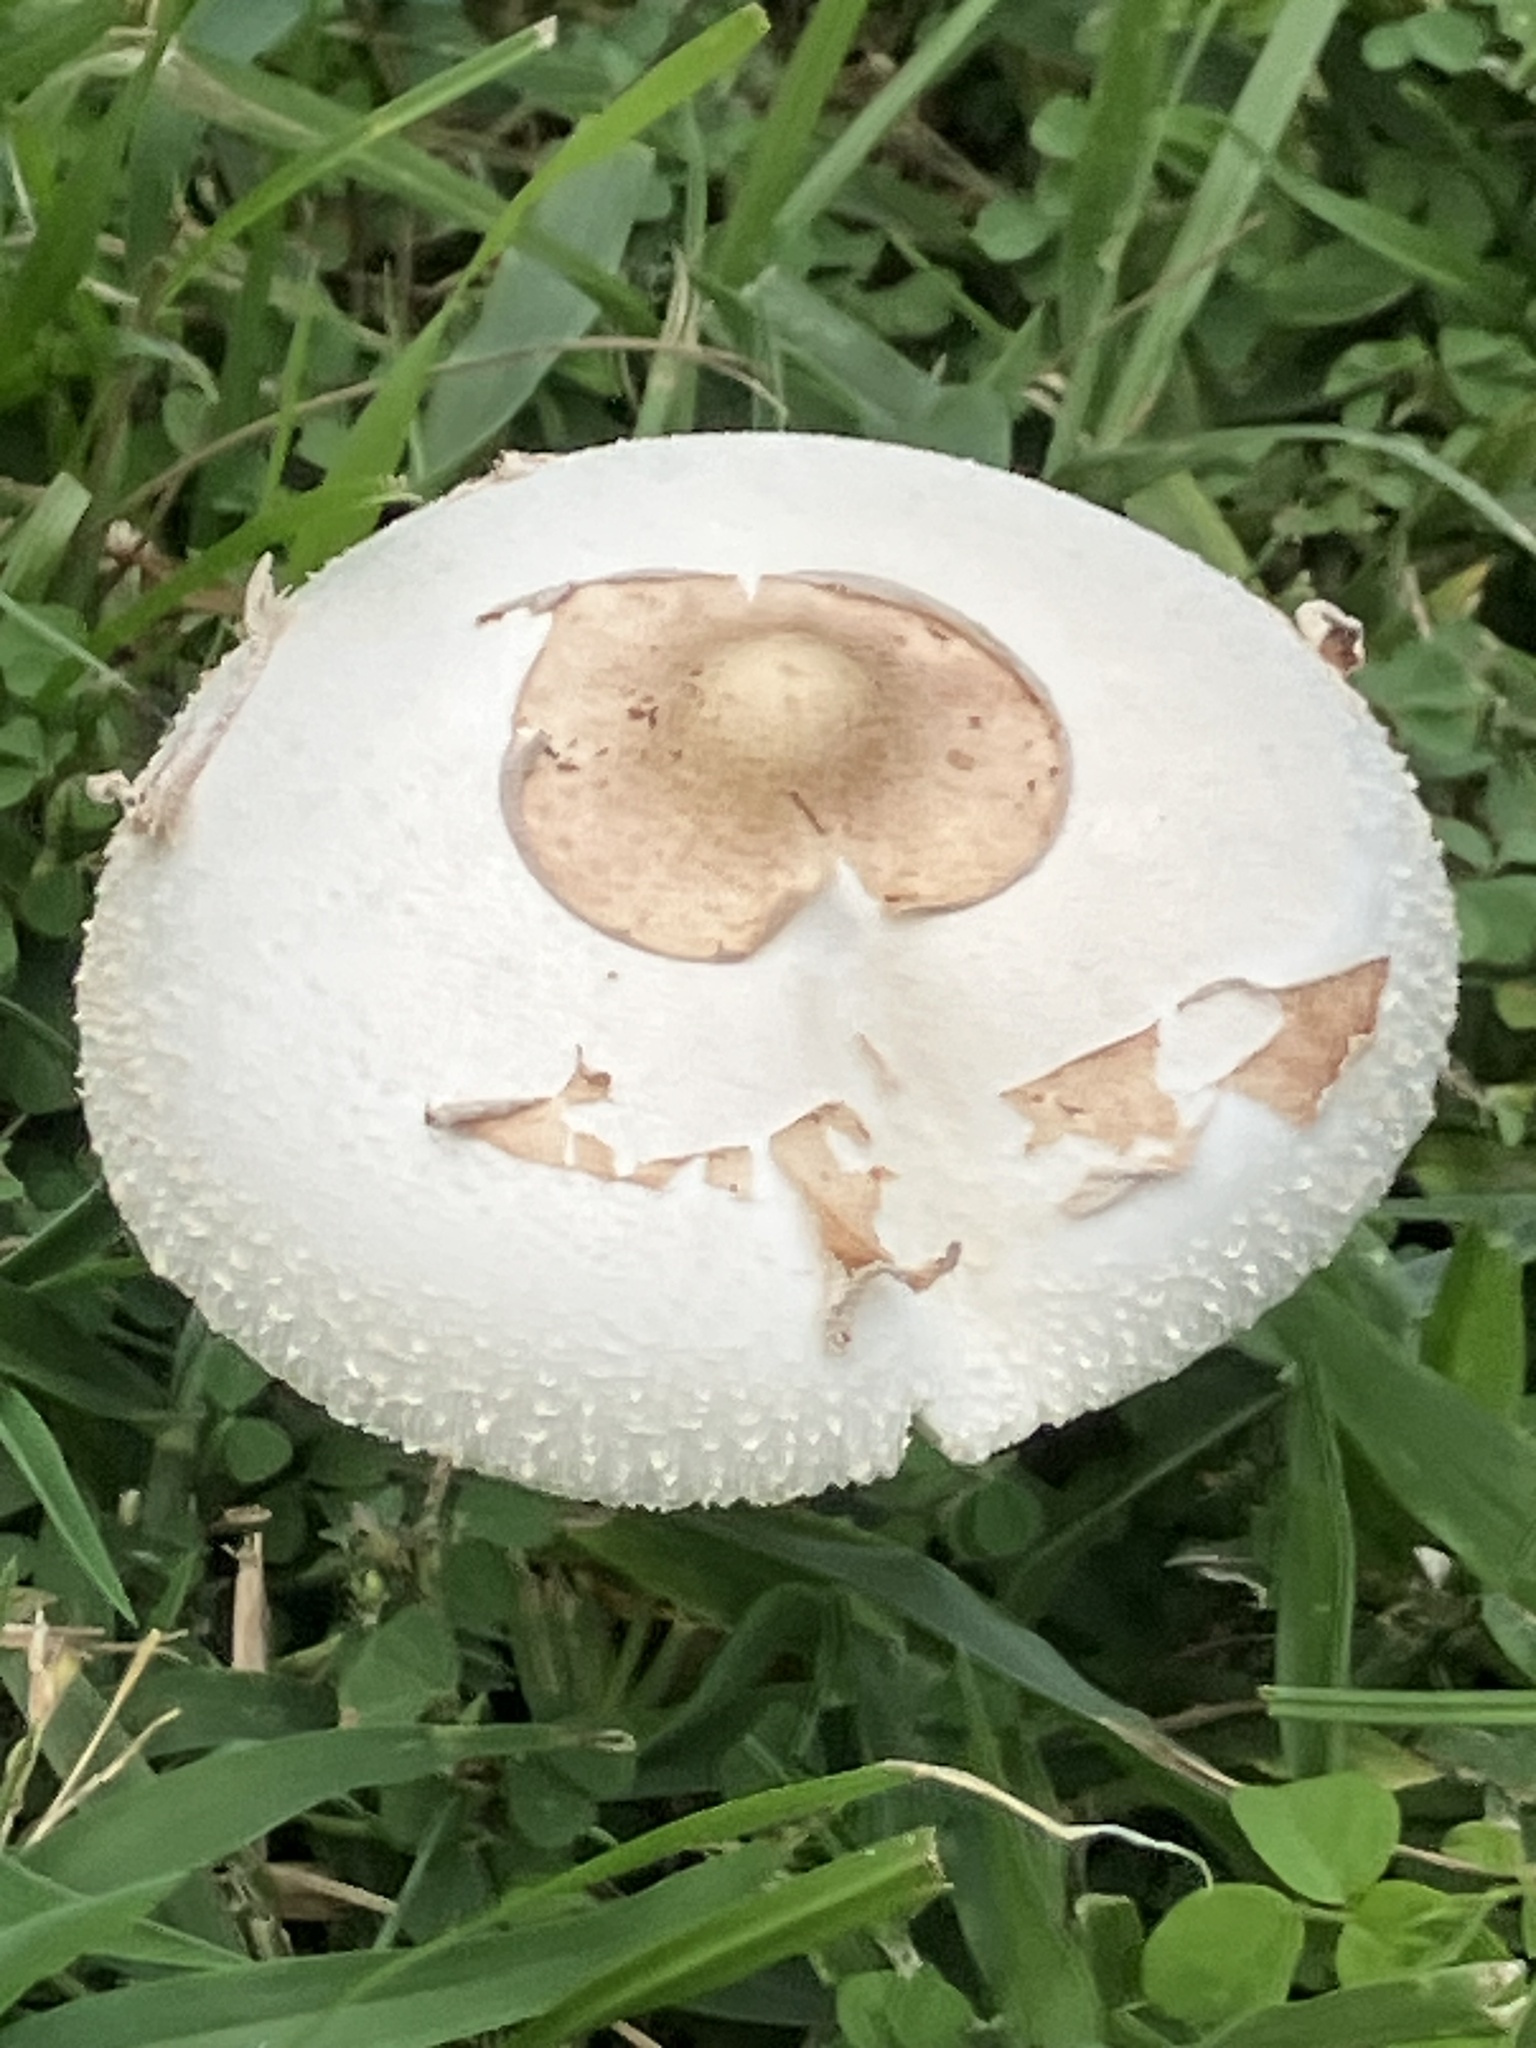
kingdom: Fungi
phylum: Basidiomycota
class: Agaricomycetes
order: Agaricales
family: Agaricaceae
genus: Chlorophyllum
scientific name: Chlorophyllum molybdites
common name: False parasol
